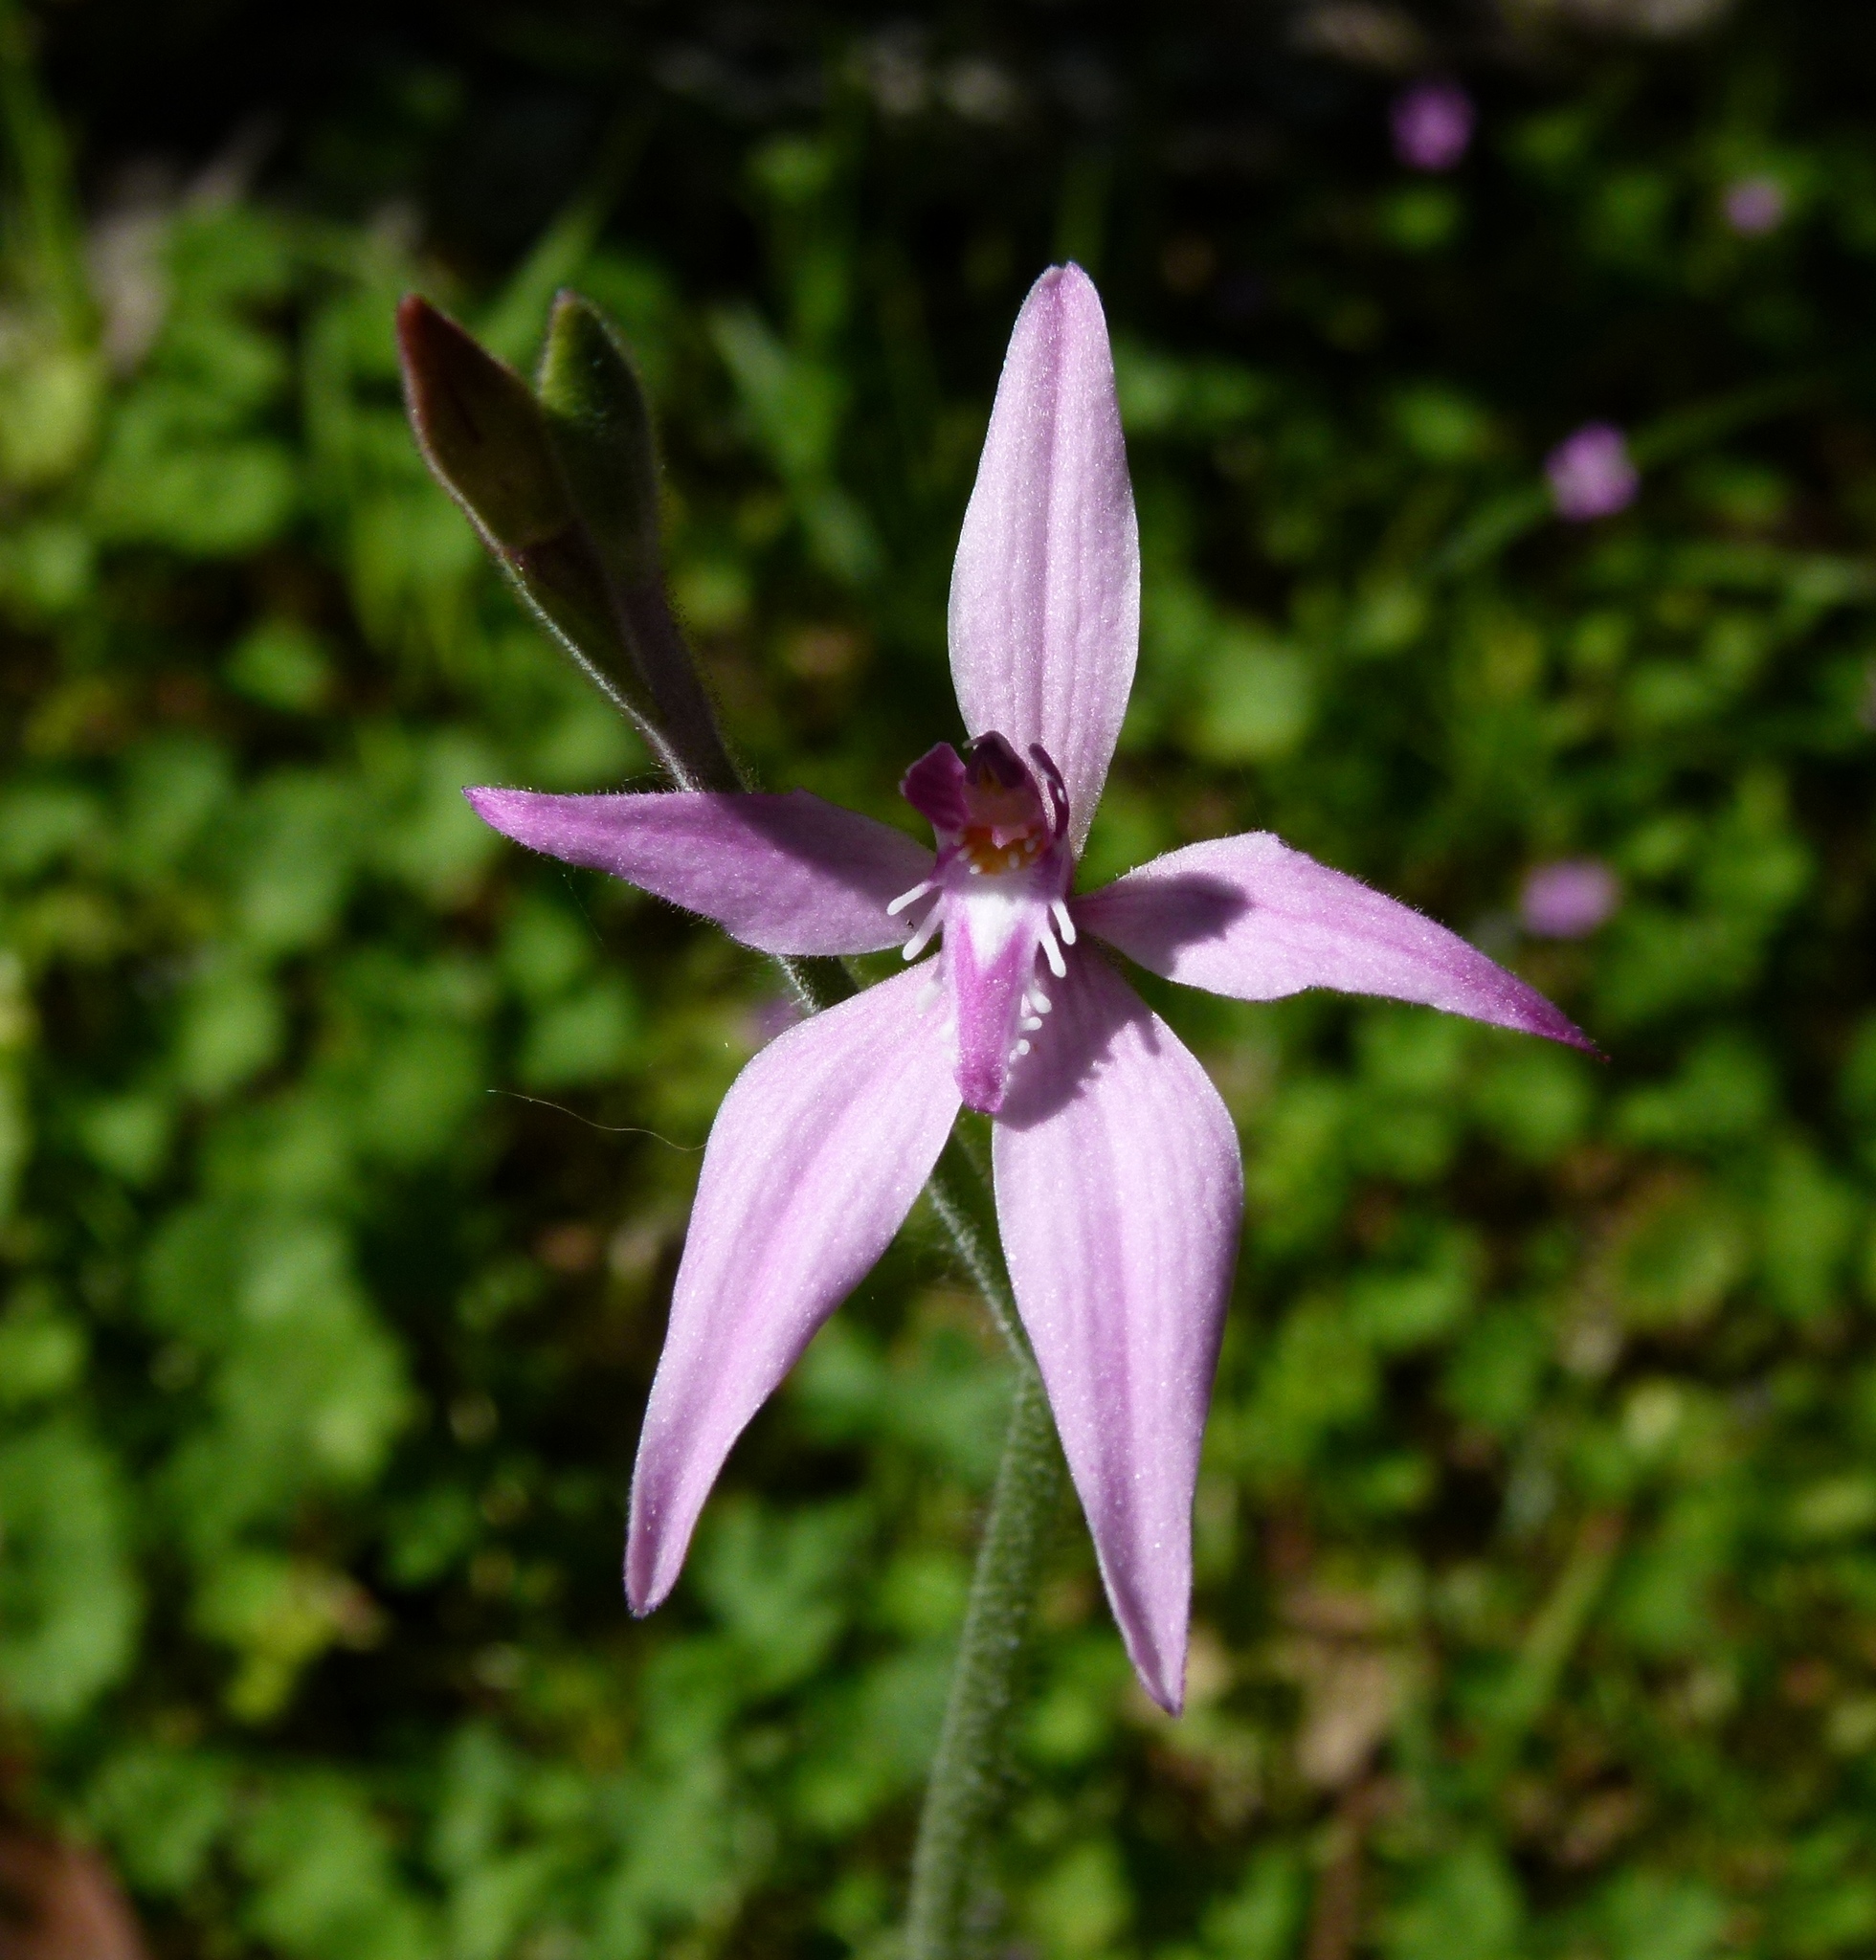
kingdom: Plantae
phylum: Tracheophyta
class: Liliopsida
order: Asparagales
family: Orchidaceae
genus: Caladenia
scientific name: Caladenia latifolia
